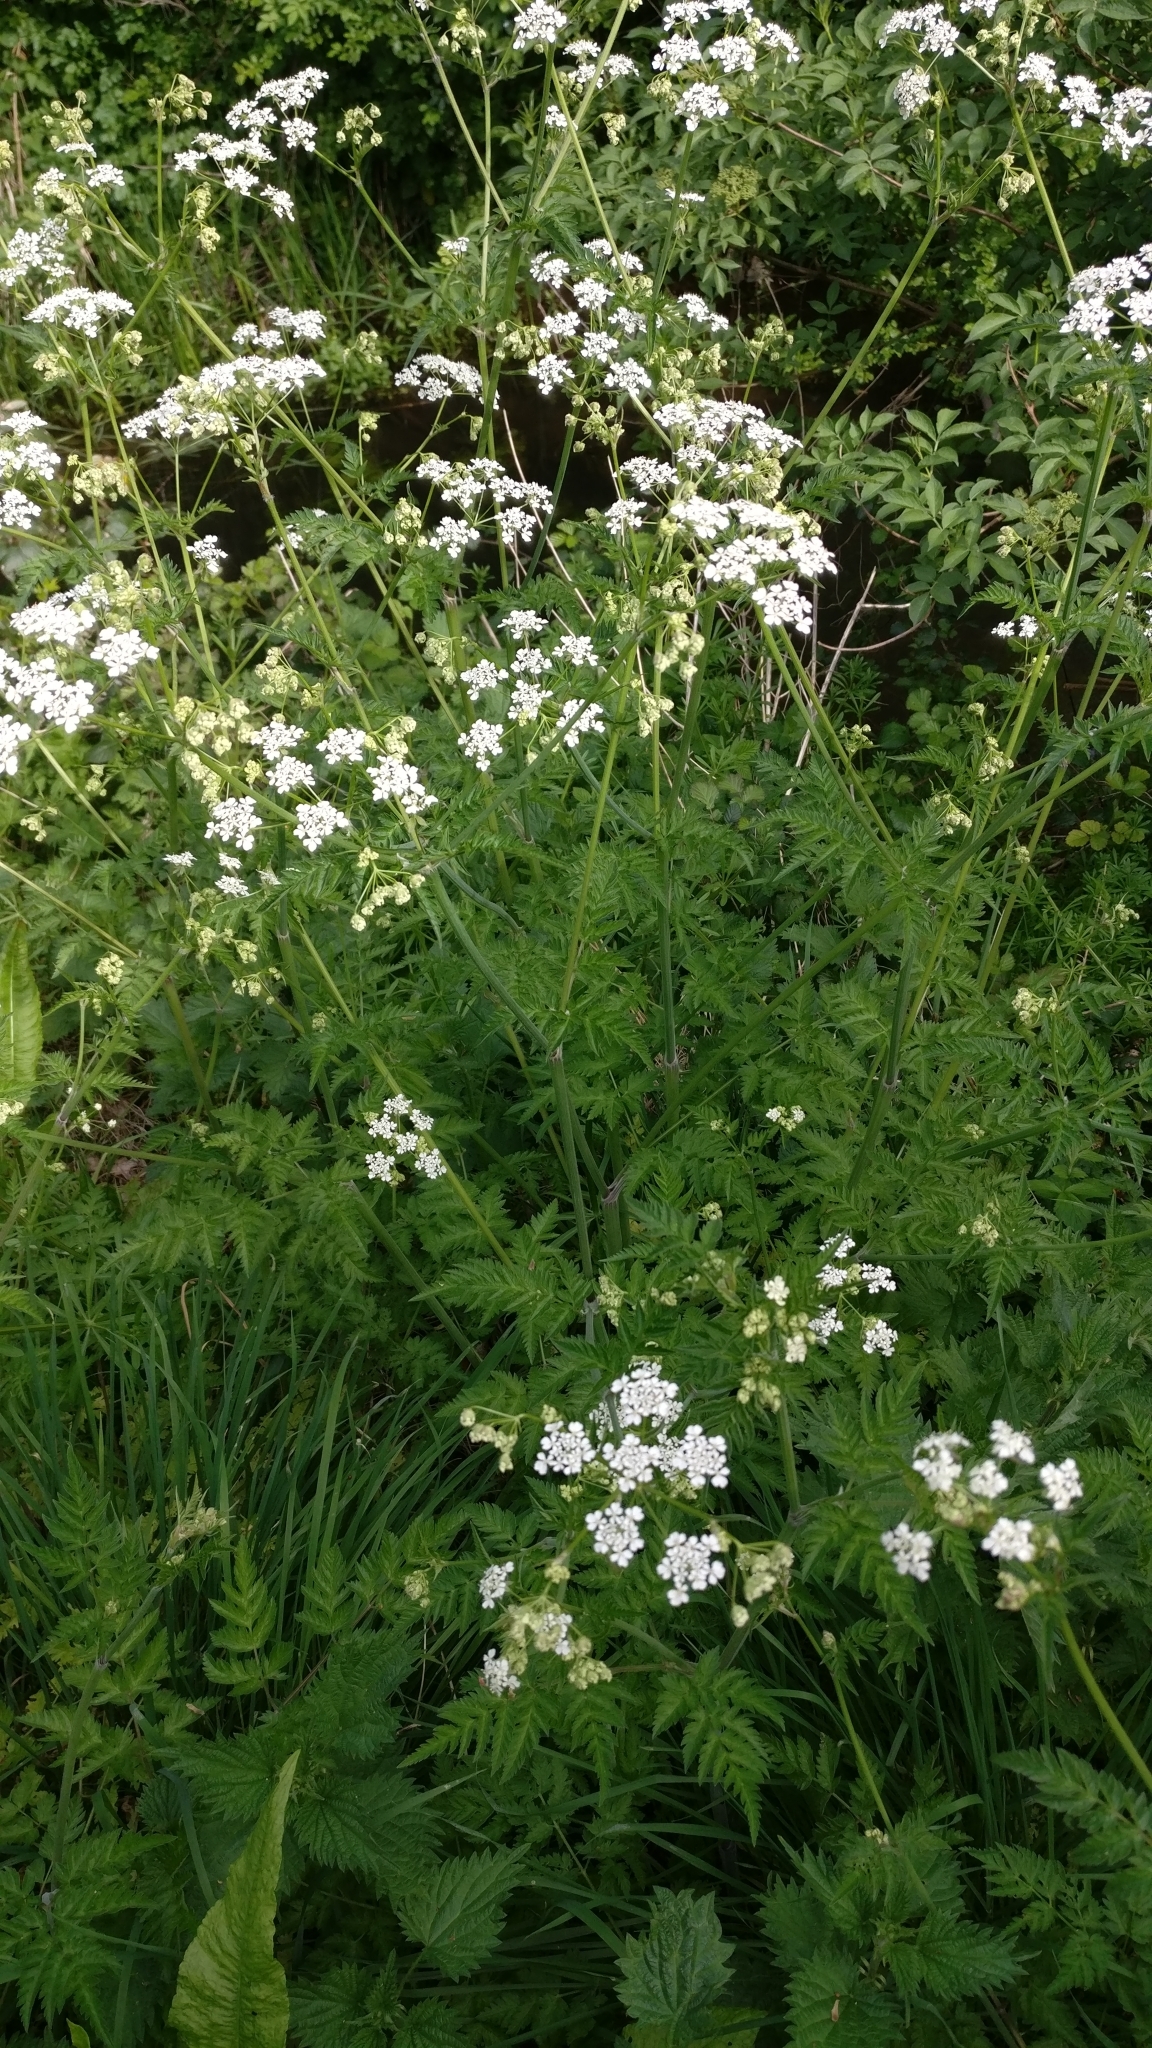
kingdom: Plantae
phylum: Tracheophyta
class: Magnoliopsida
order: Apiales
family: Apiaceae
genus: Anthriscus
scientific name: Anthriscus sylvestris
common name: Cow parsley
